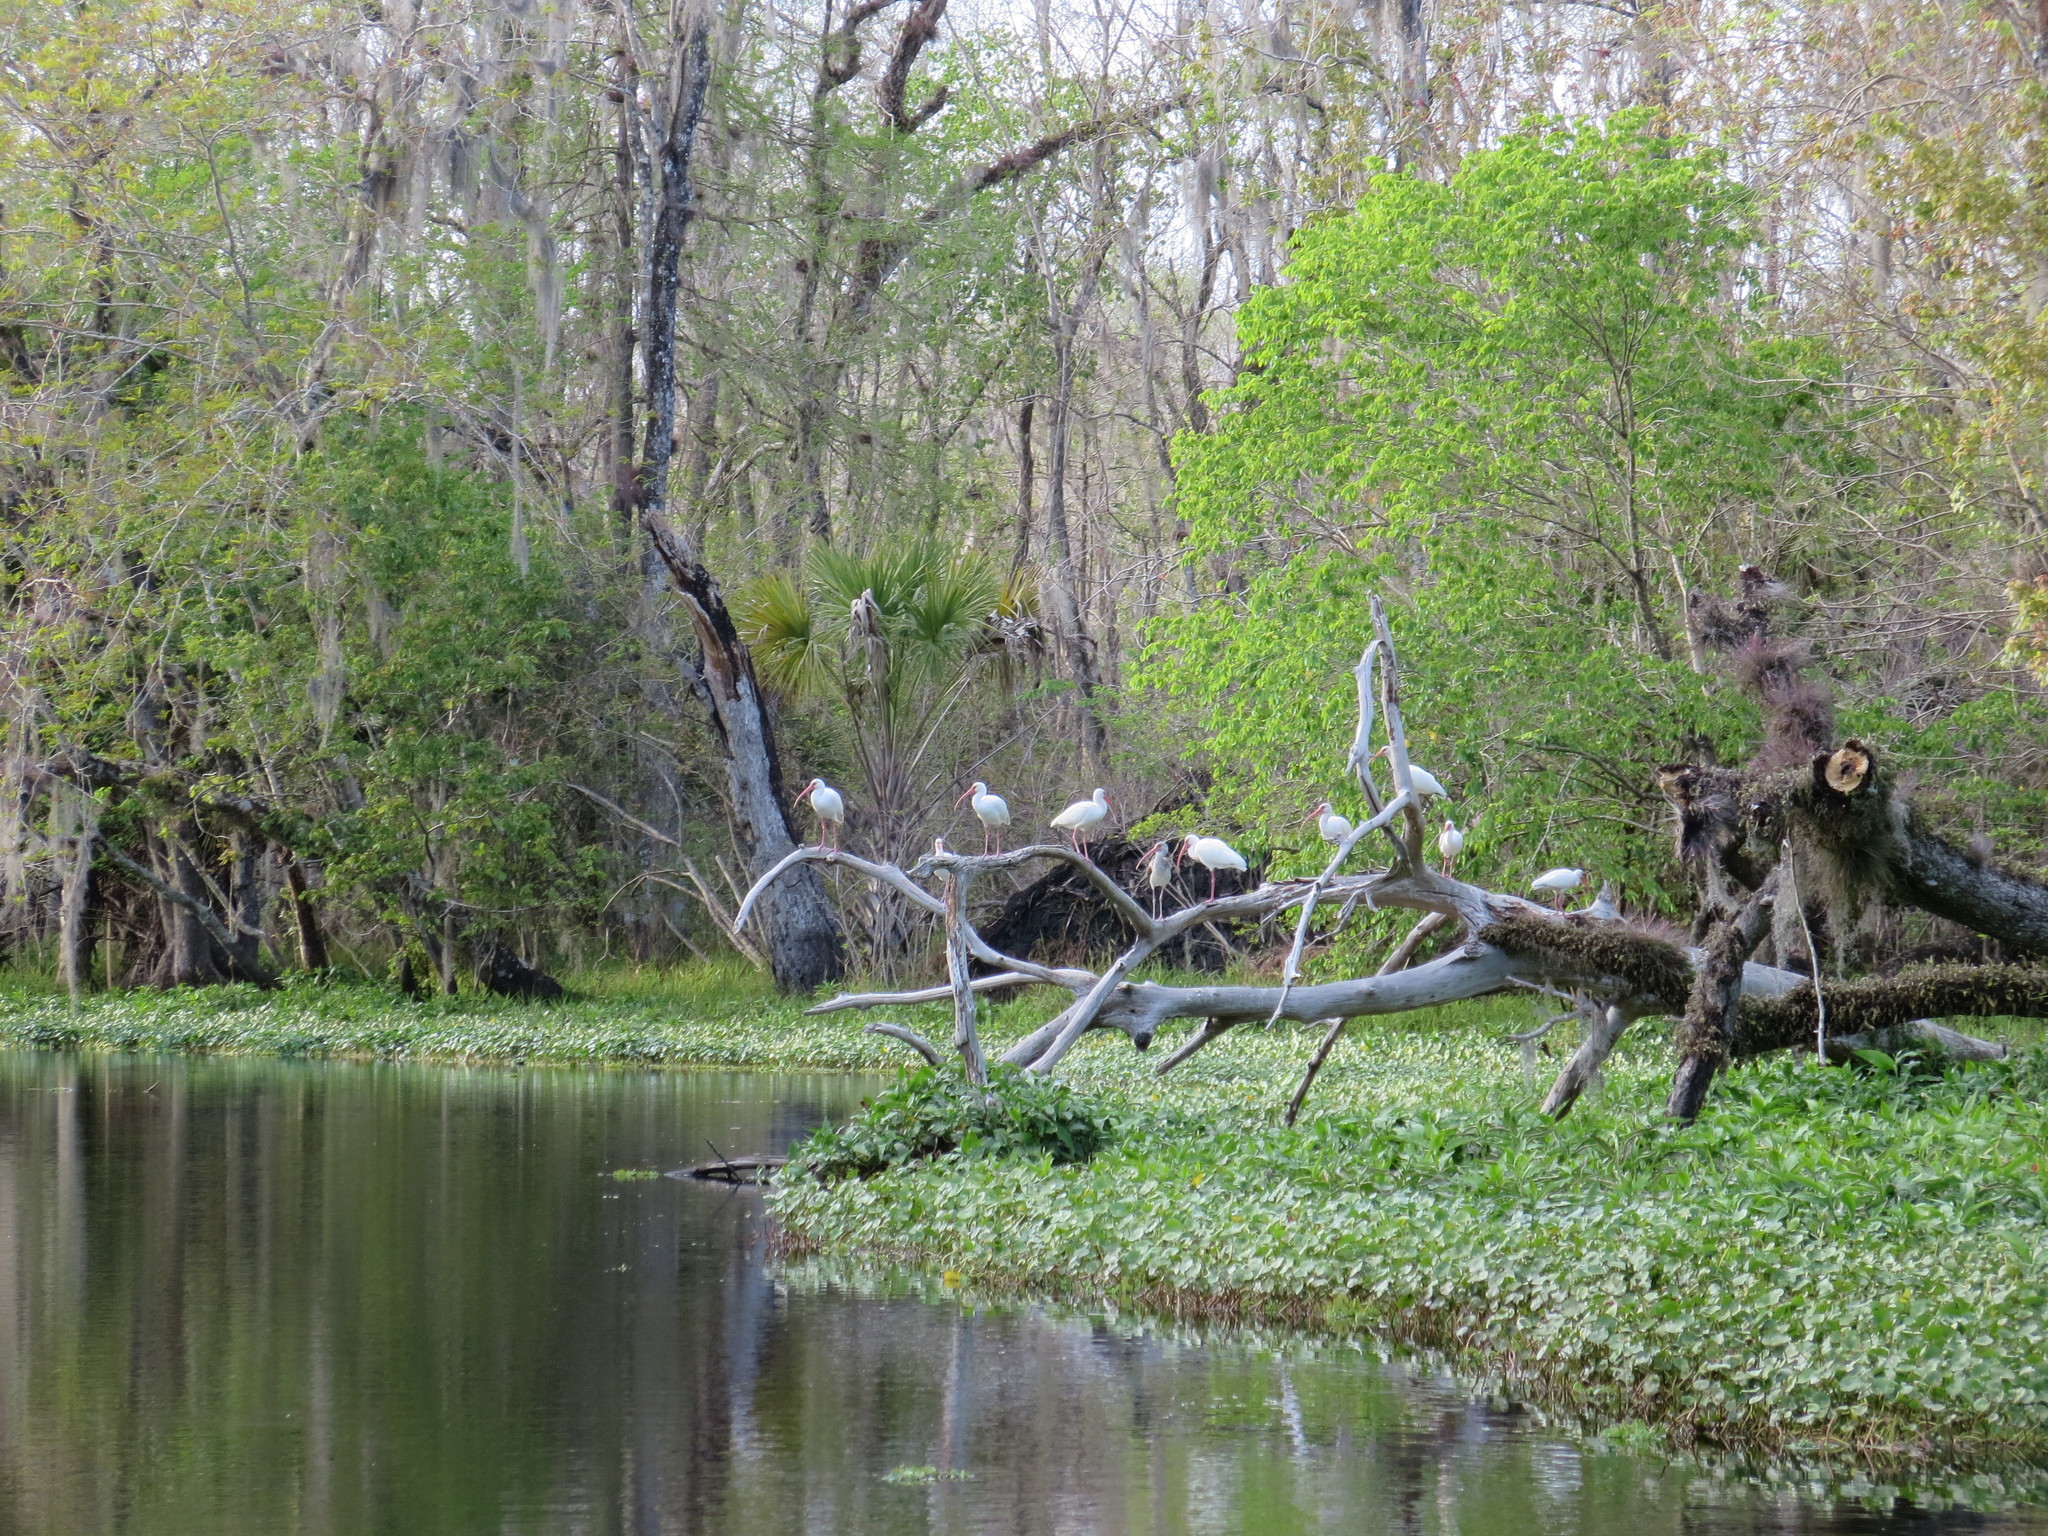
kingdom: Animalia
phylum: Chordata
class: Aves
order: Pelecaniformes
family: Threskiornithidae
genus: Eudocimus
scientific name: Eudocimus albus
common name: White ibis
